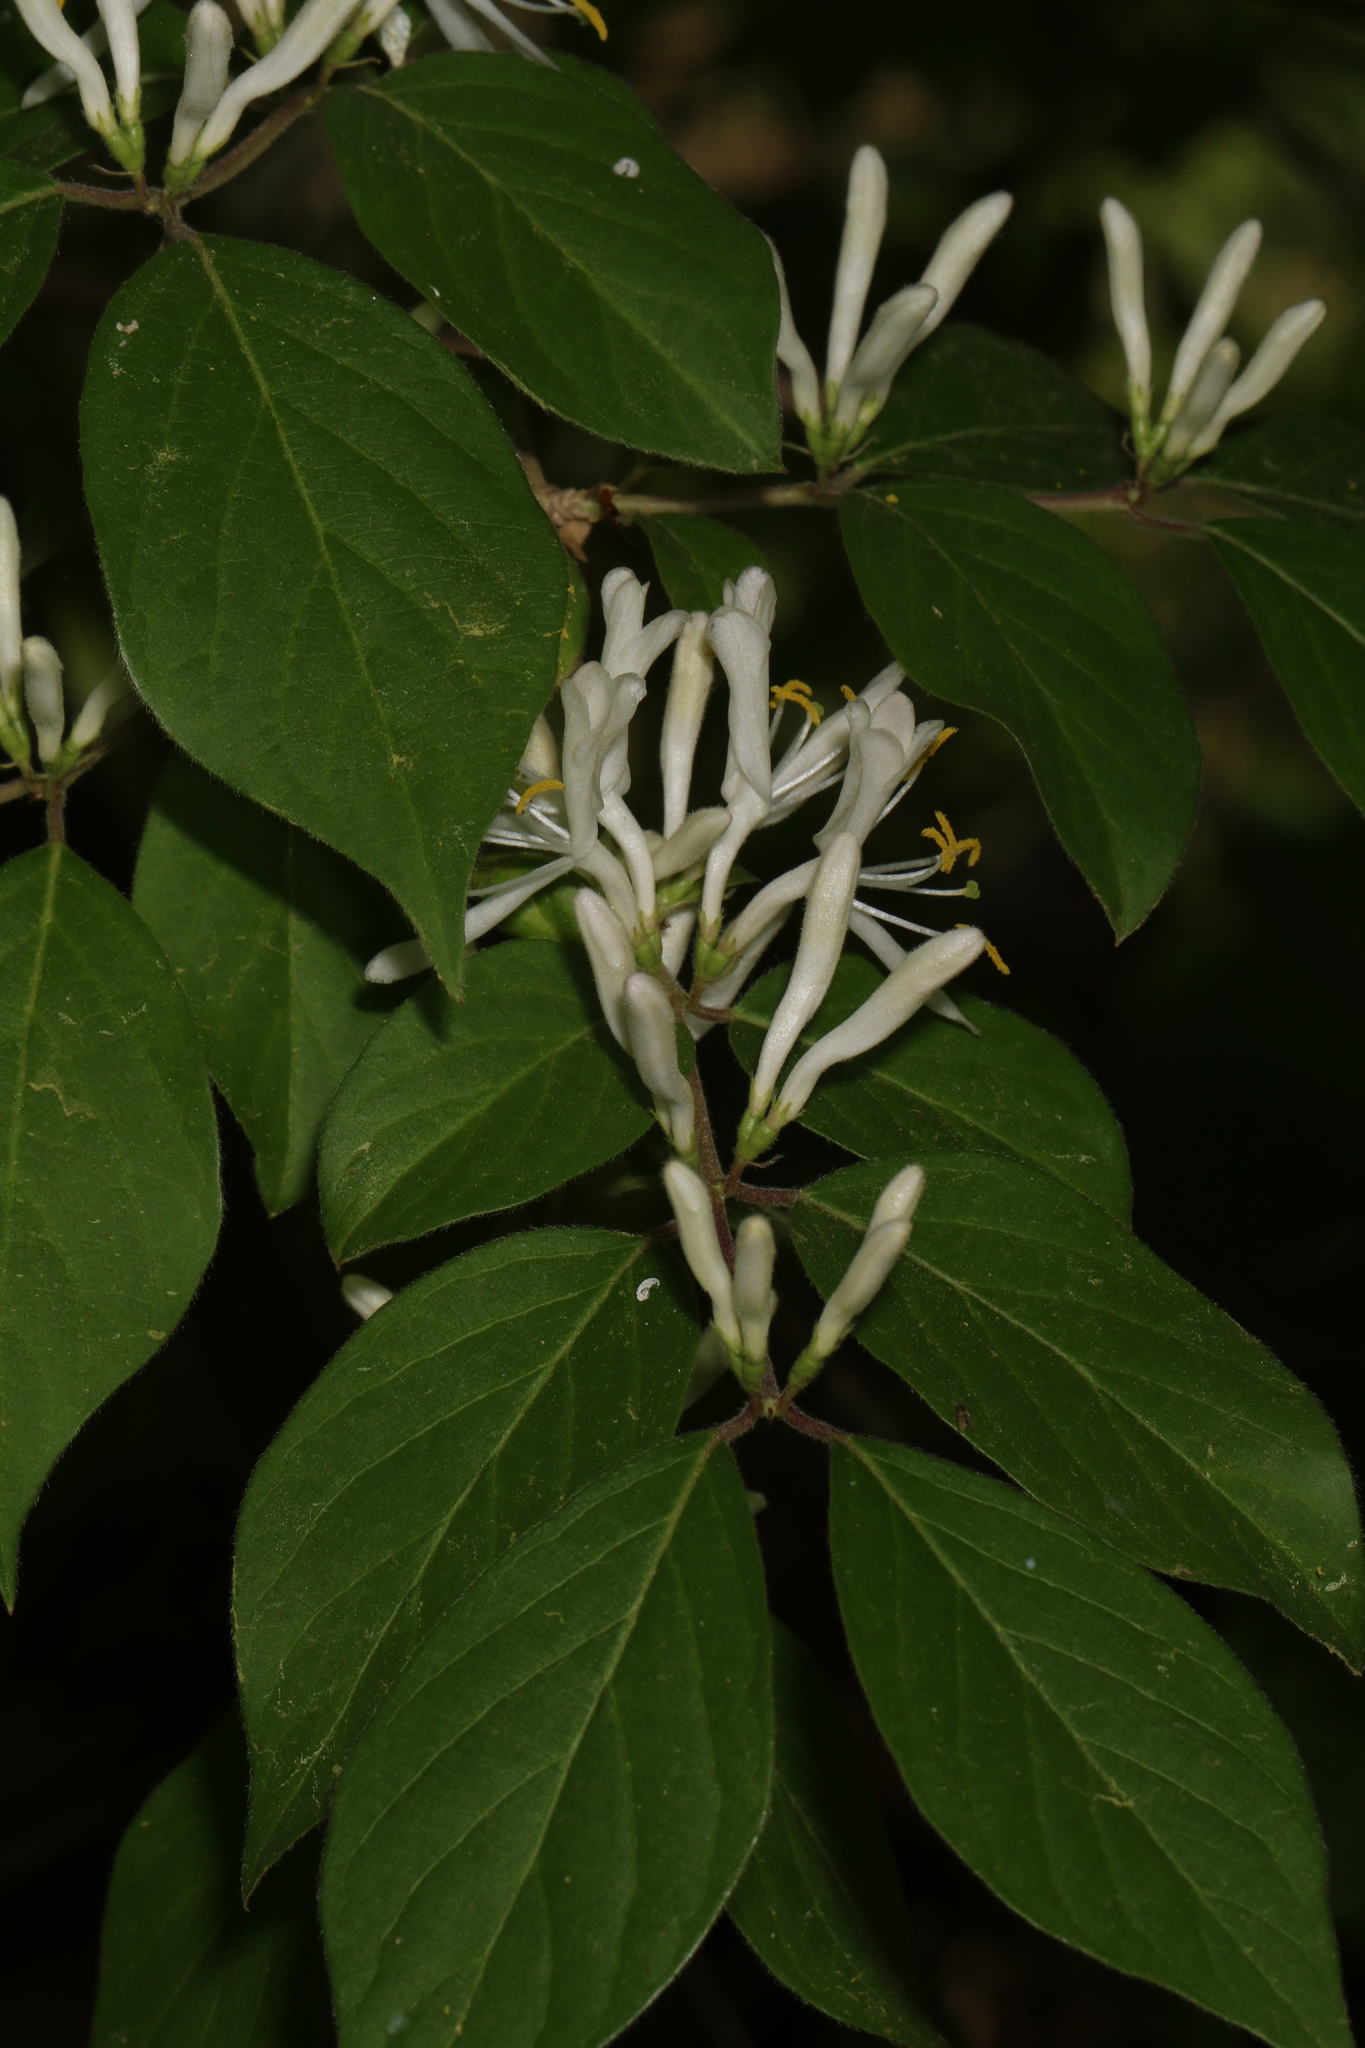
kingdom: Plantae
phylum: Tracheophyta
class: Magnoliopsida
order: Dipsacales
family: Caprifoliaceae
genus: Lonicera
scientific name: Lonicera maackii
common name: Amur honeysuckle
